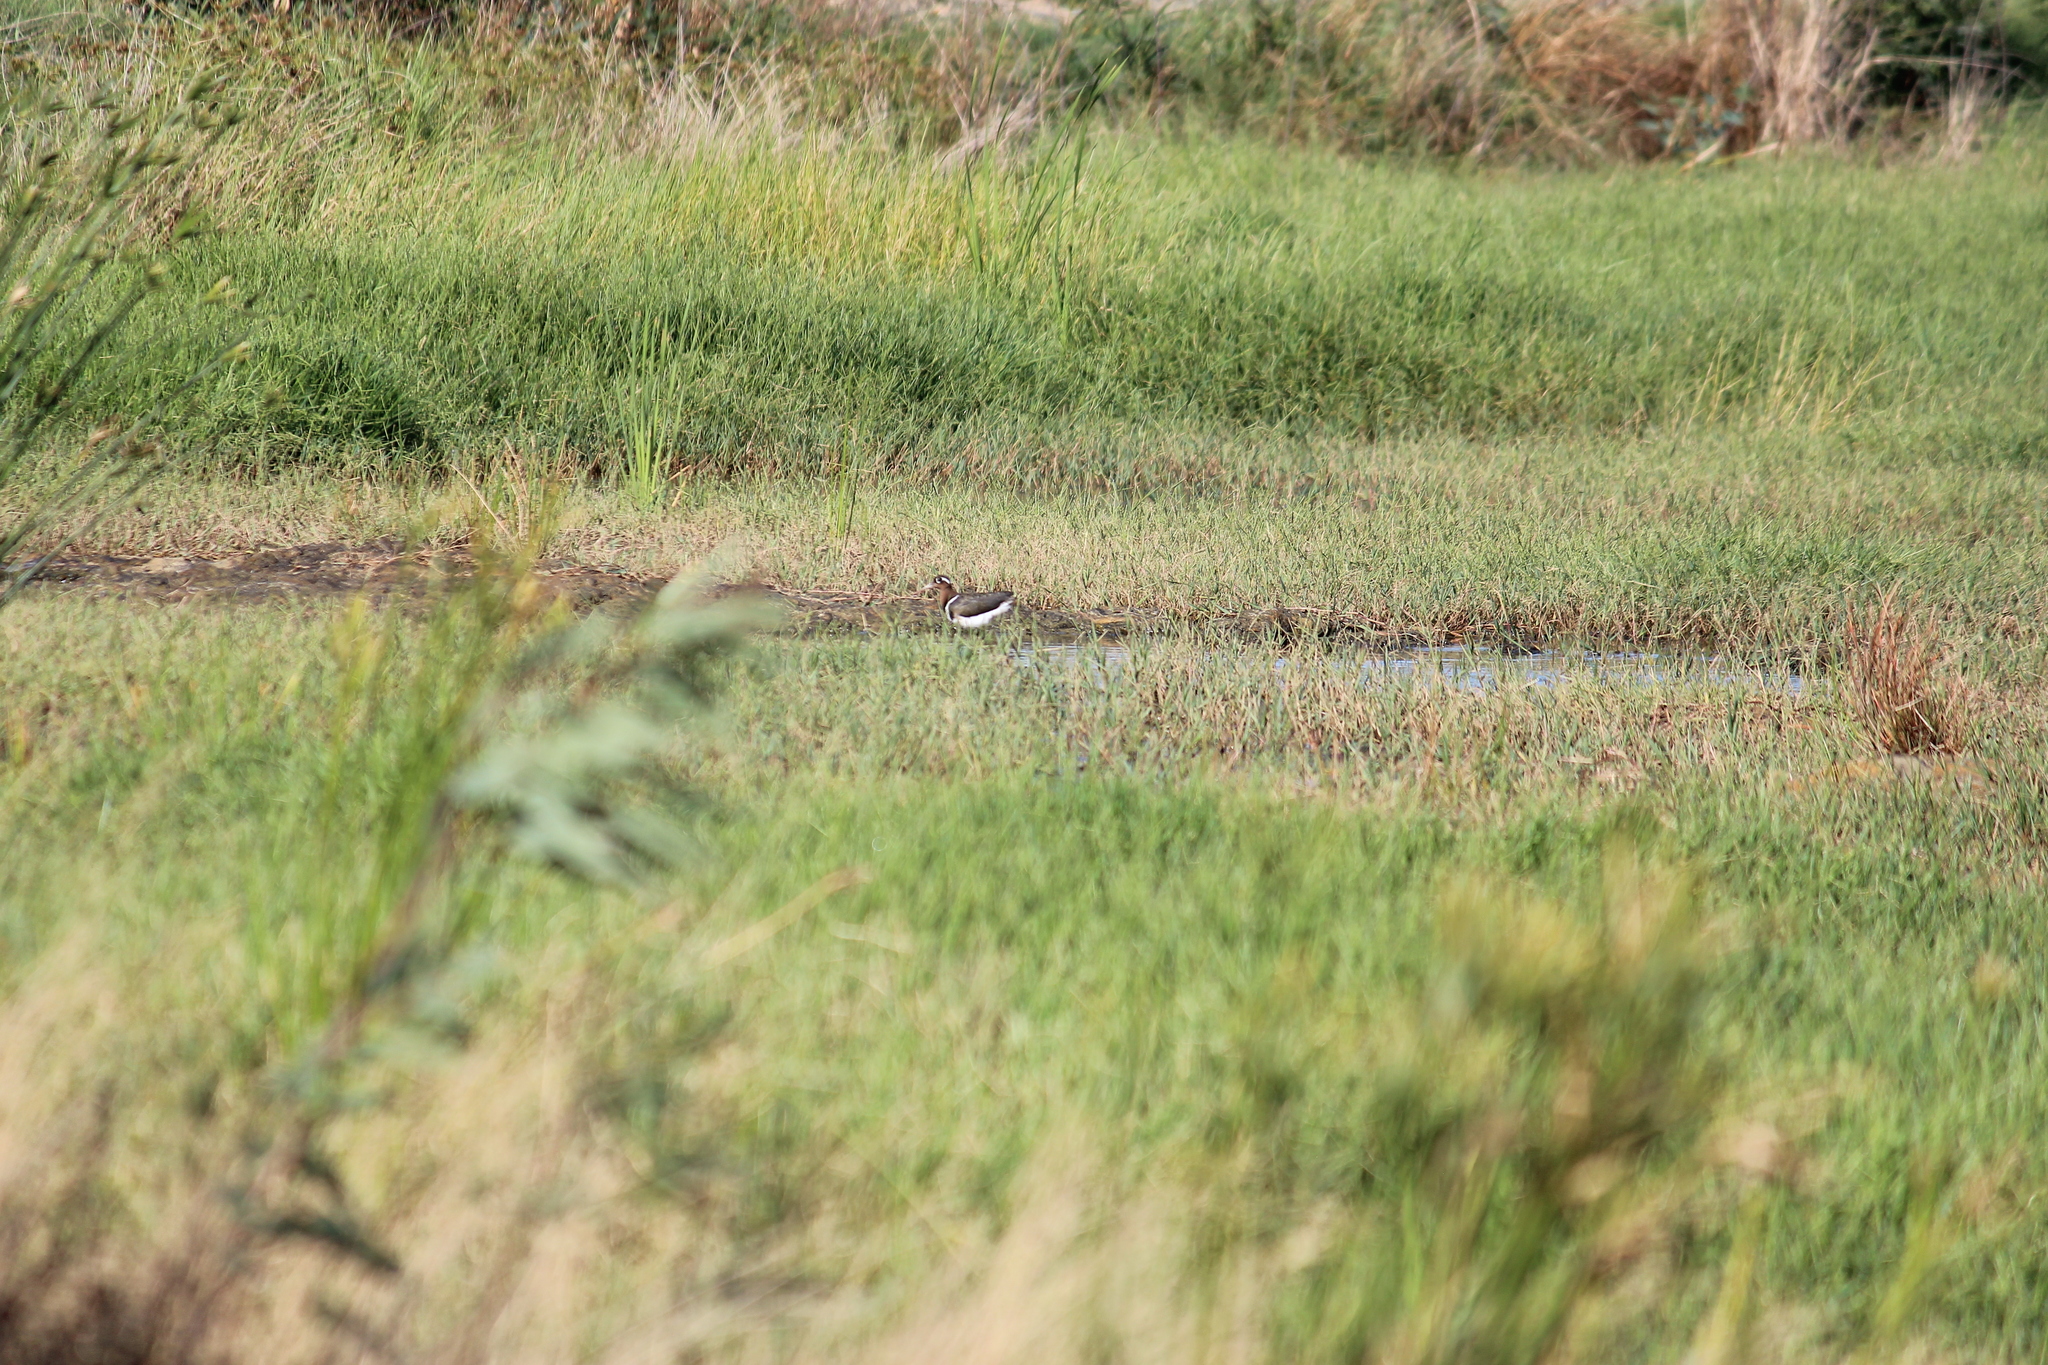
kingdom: Animalia
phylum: Chordata
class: Aves
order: Charadriiformes
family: Rostratulidae
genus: Rostratula
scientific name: Rostratula benghalensis
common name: Greater painted-snipe
